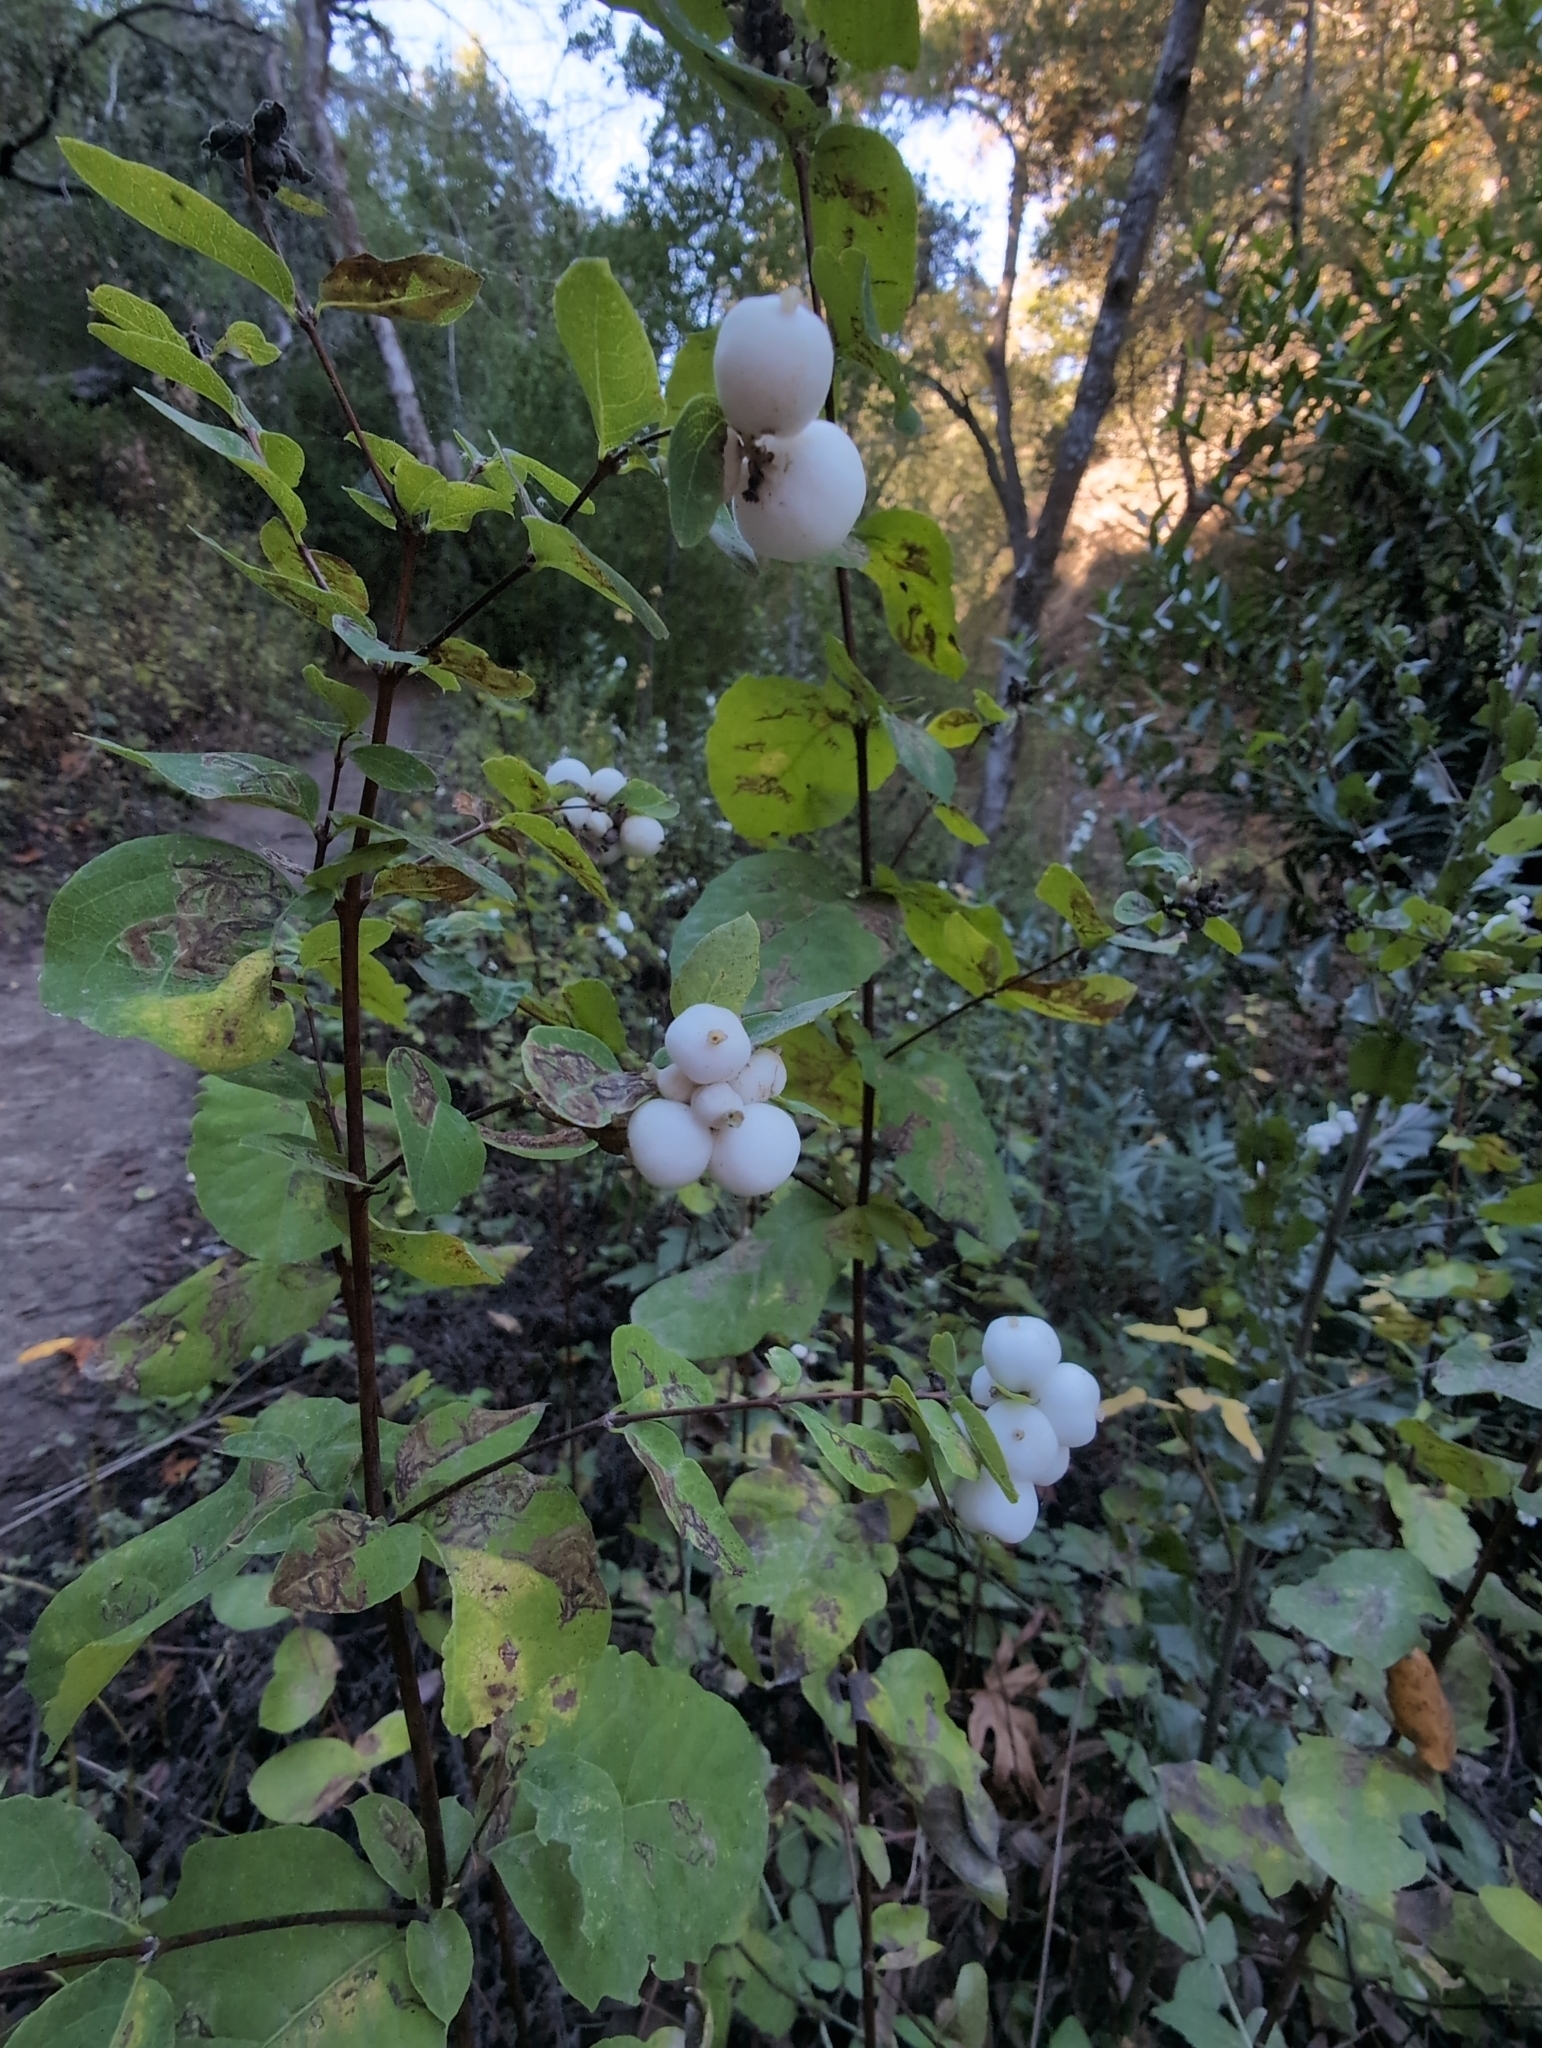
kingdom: Plantae
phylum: Tracheophyta
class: Magnoliopsida
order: Dipsacales
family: Caprifoliaceae
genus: Symphoricarpos
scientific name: Symphoricarpos albus
